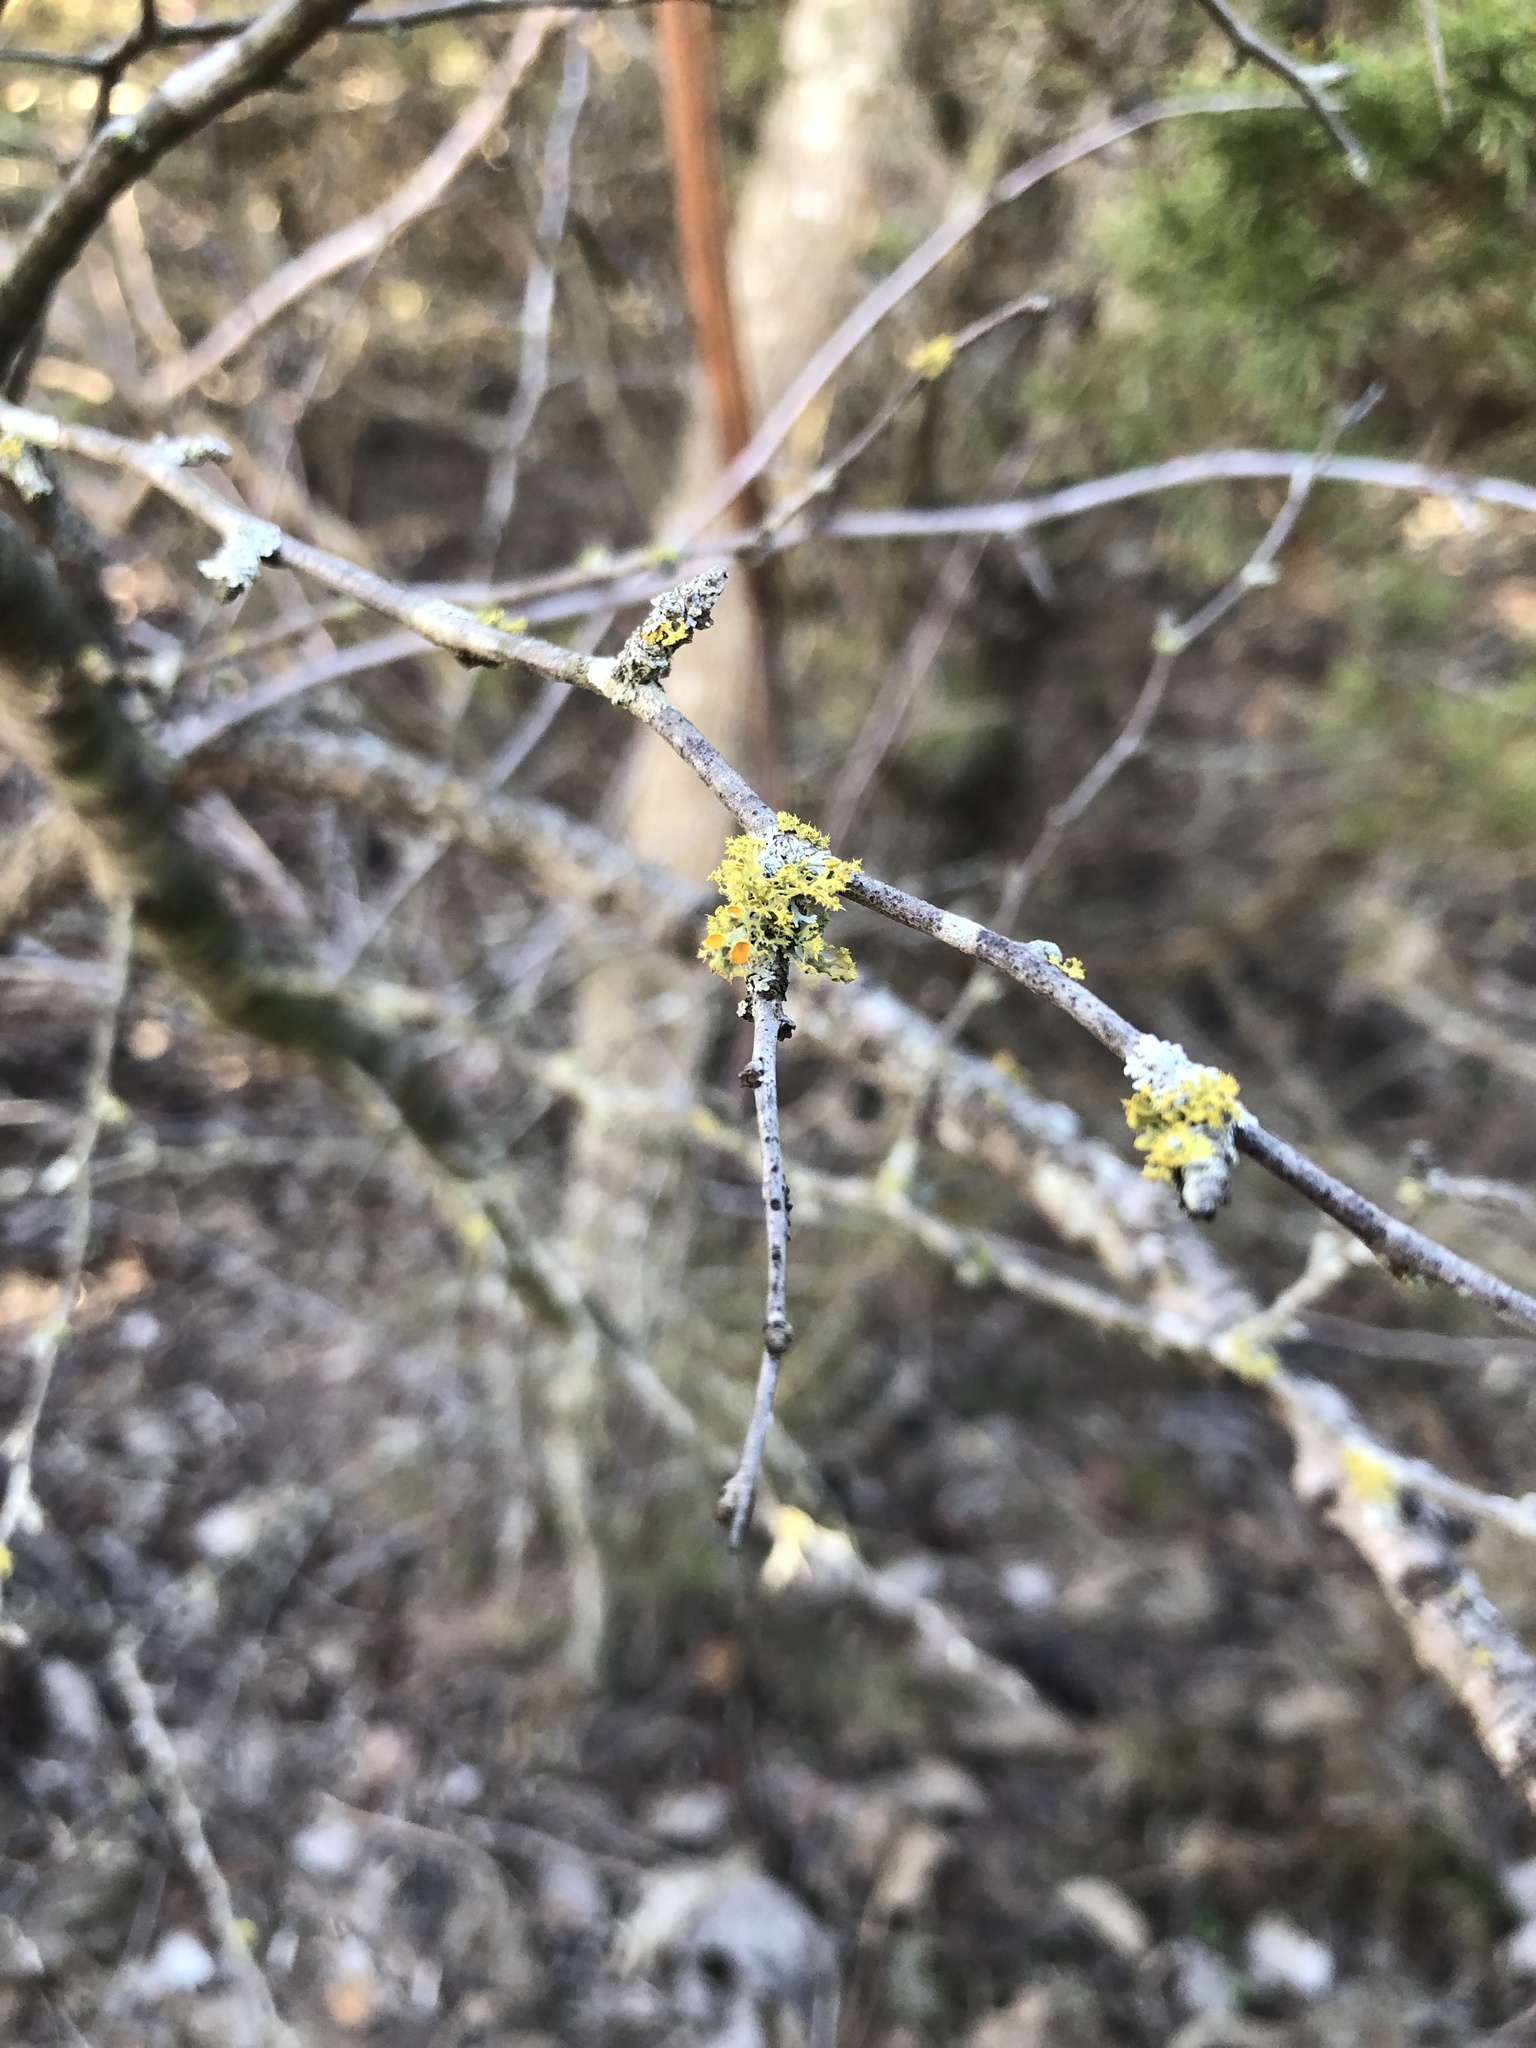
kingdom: Fungi
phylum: Ascomycota
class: Lecanoromycetes
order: Teloschistales
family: Teloschistaceae
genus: Niorma
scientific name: Niorma chrysophthalma
